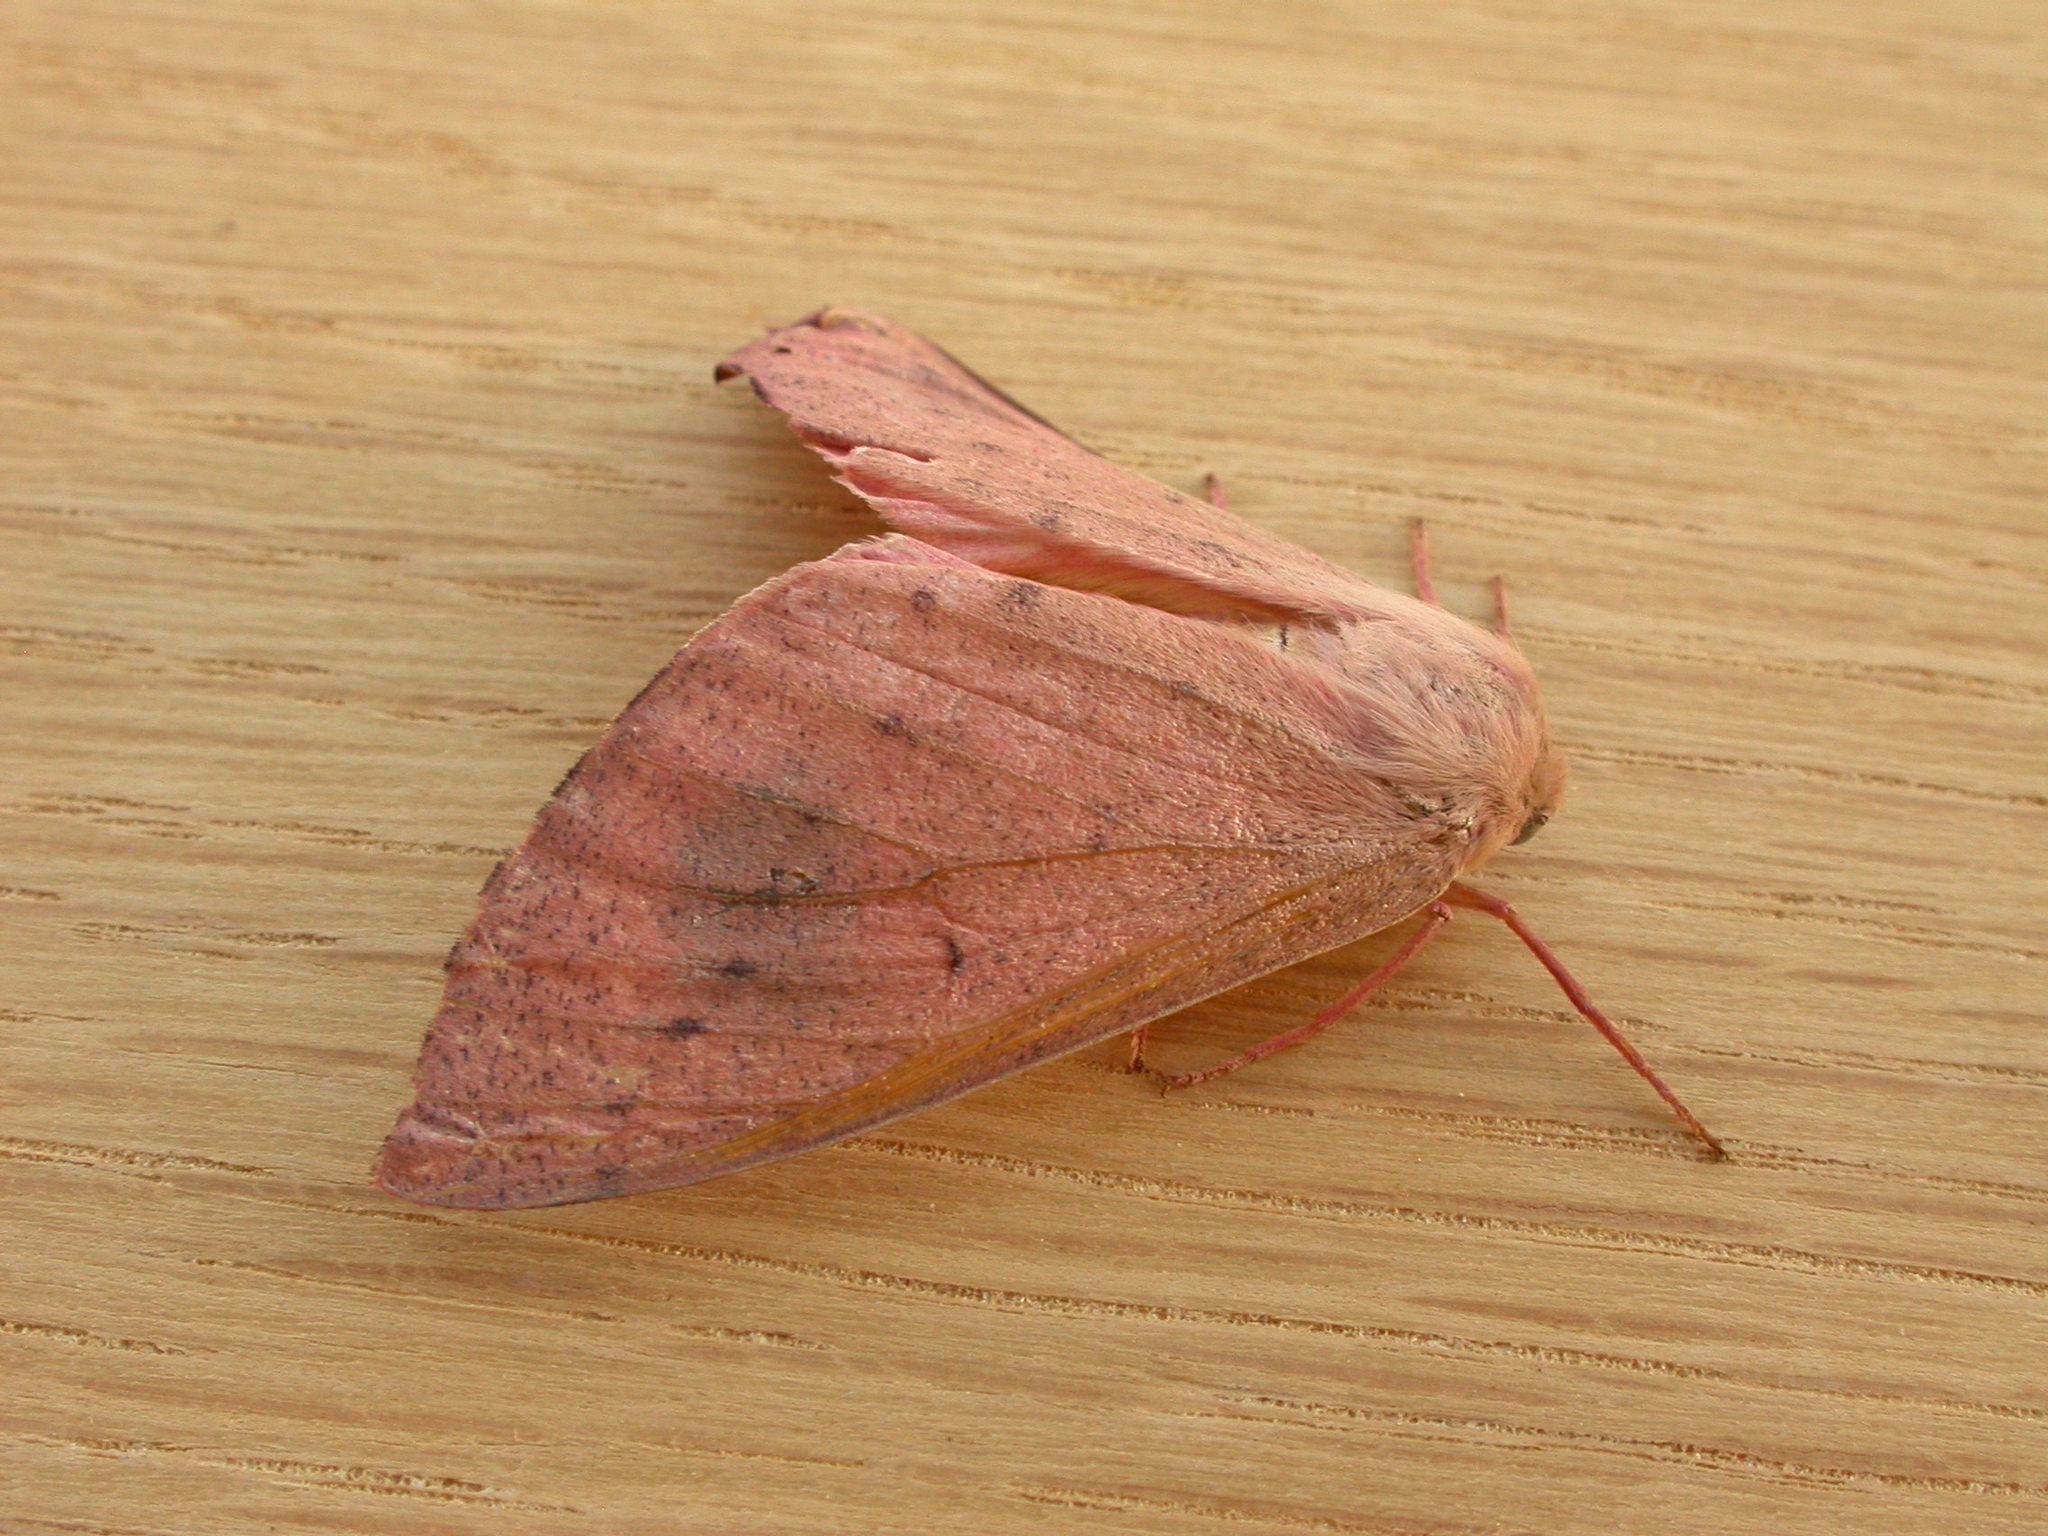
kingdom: Animalia
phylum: Arthropoda
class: Insecta
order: Lepidoptera
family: Geometridae
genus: Arhodia
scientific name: Arhodia lasiocamparia
